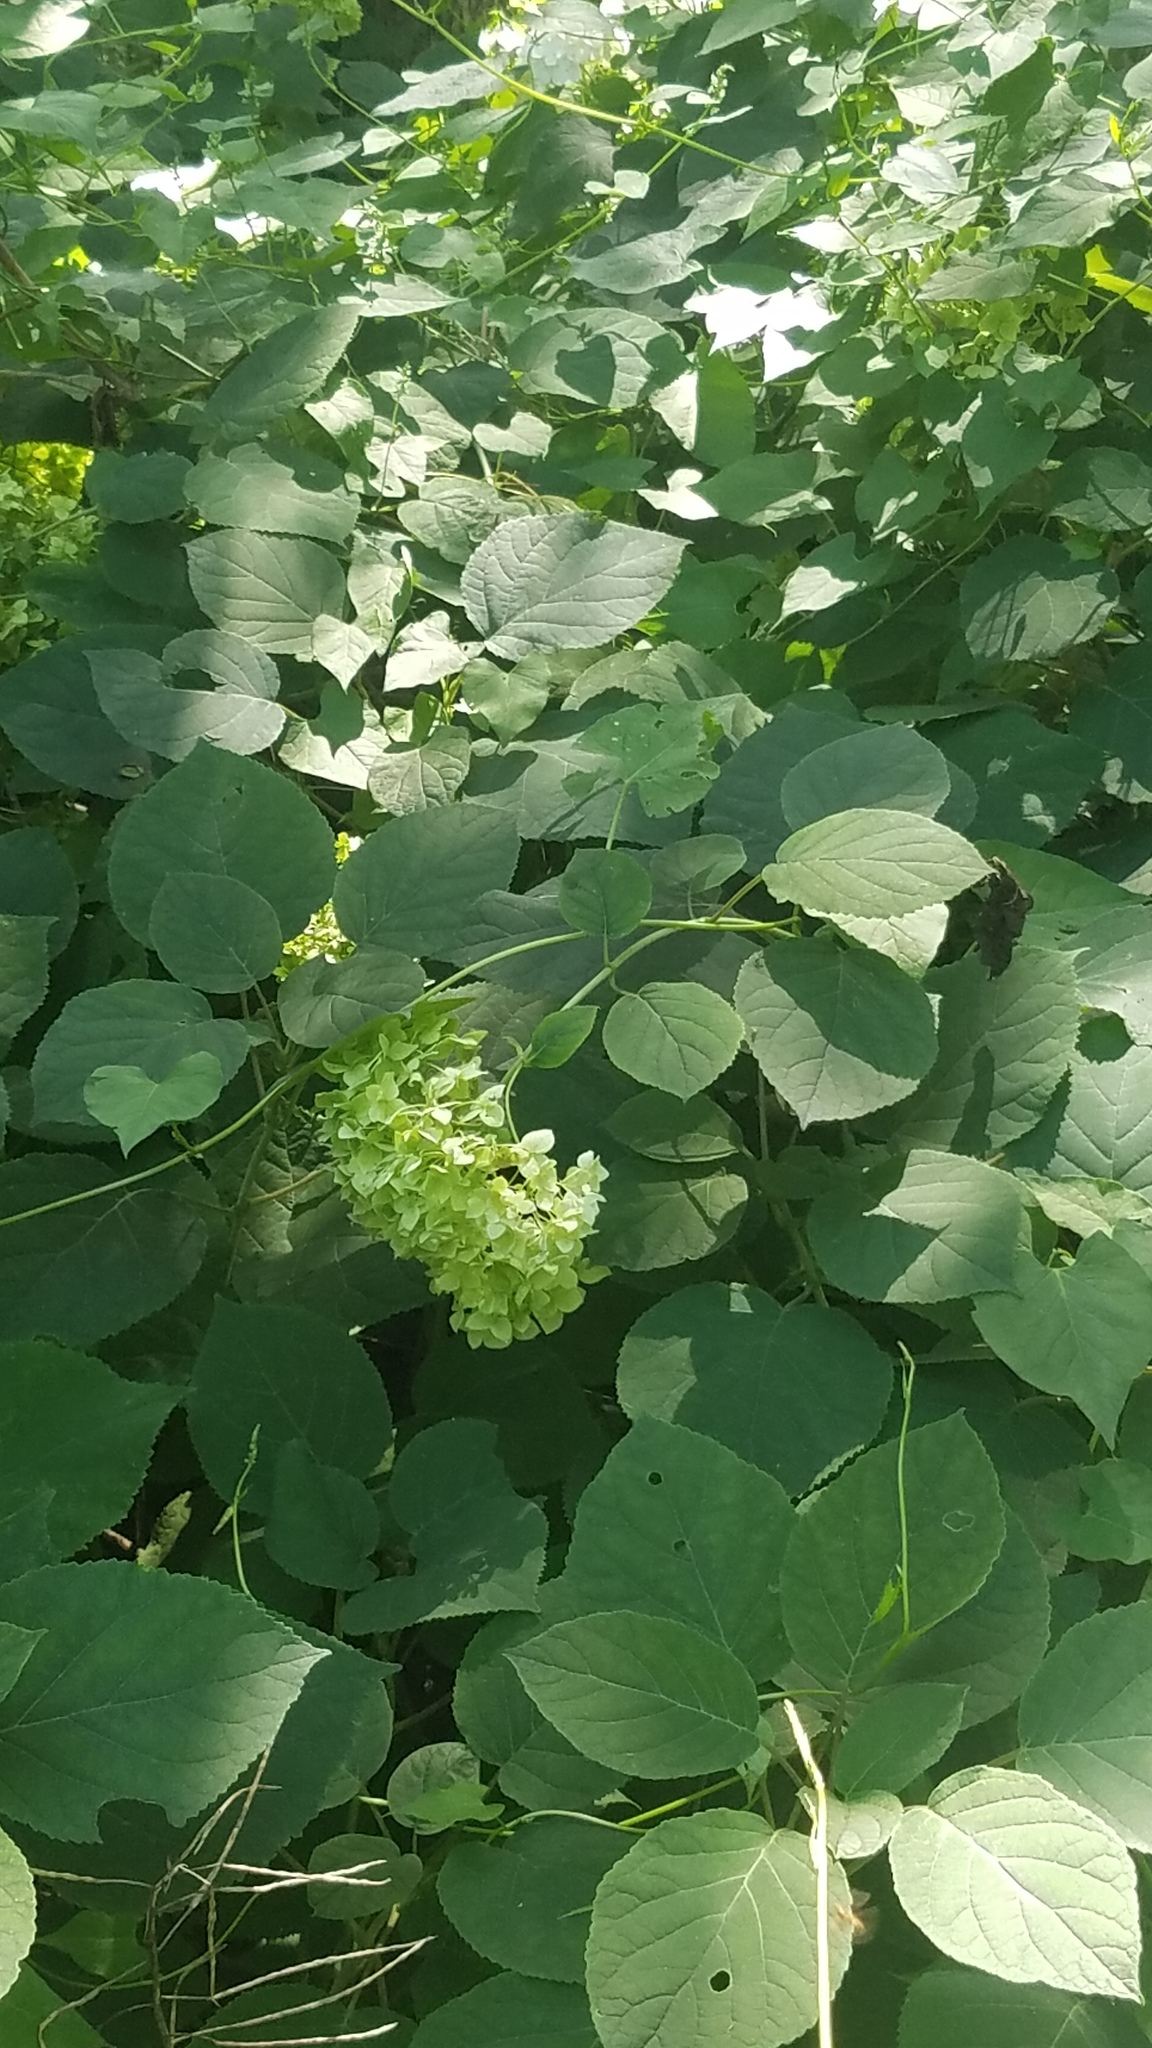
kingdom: Plantae
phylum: Tracheophyta
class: Magnoliopsida
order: Cornales
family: Hydrangeaceae
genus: Hydrangea
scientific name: Hydrangea arborescens
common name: Sevenbark
